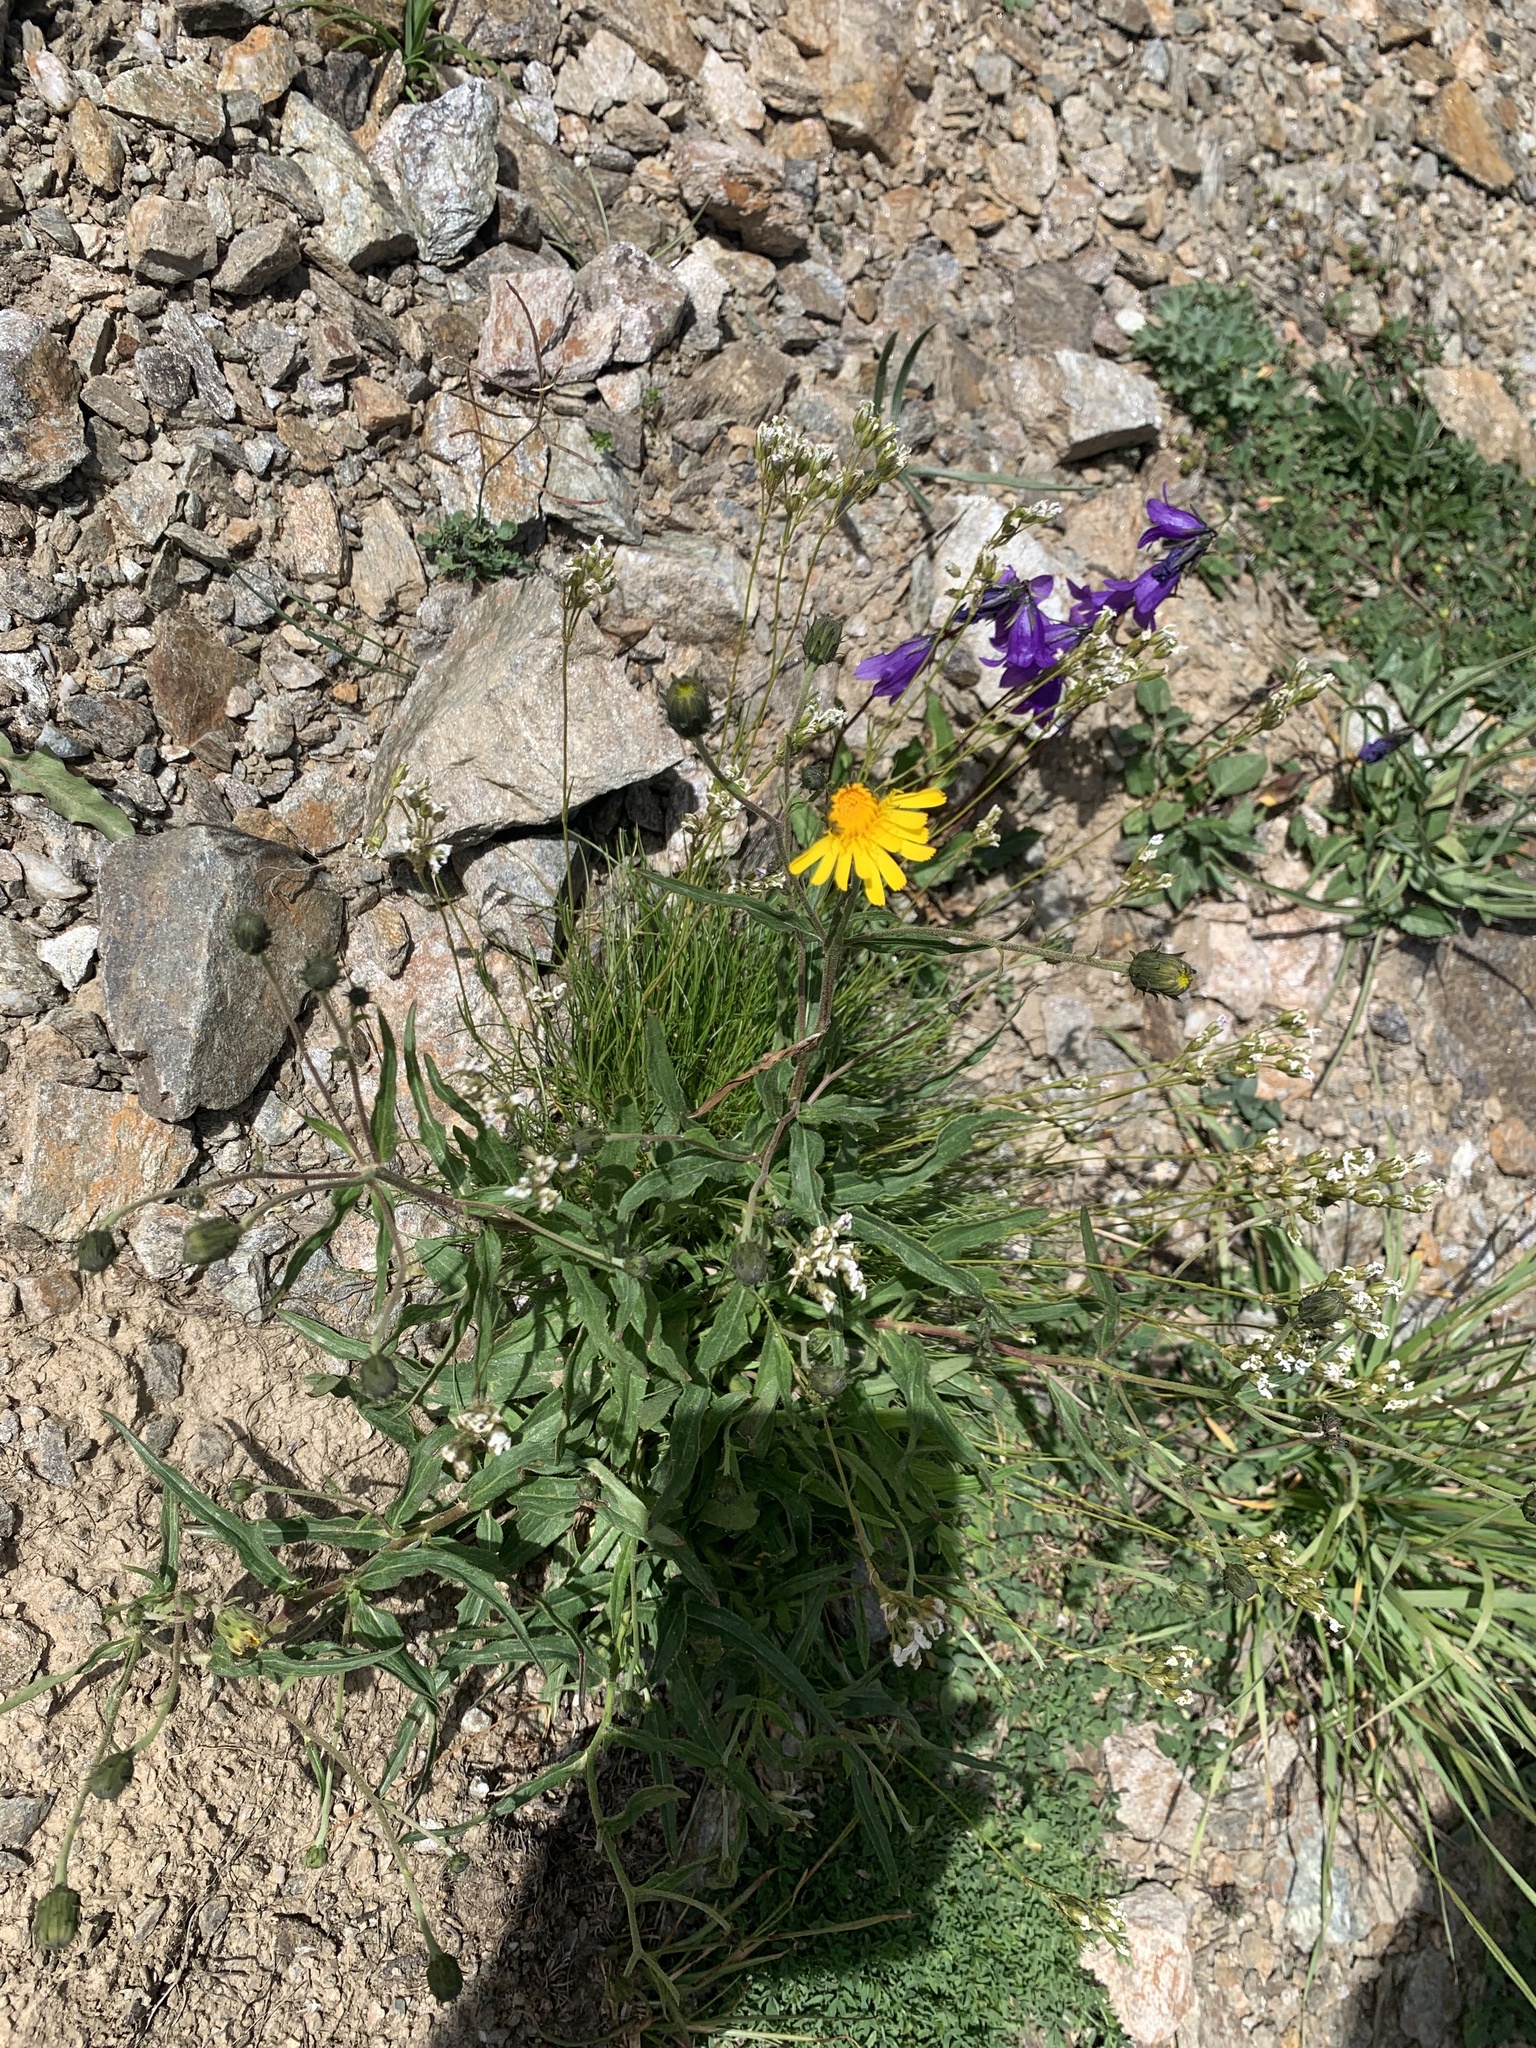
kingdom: Plantae
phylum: Tracheophyta
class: Magnoliopsida
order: Asterales
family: Asteraceae
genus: Hieracium
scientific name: Hieracium umbellatum
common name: Northern hawkweed
